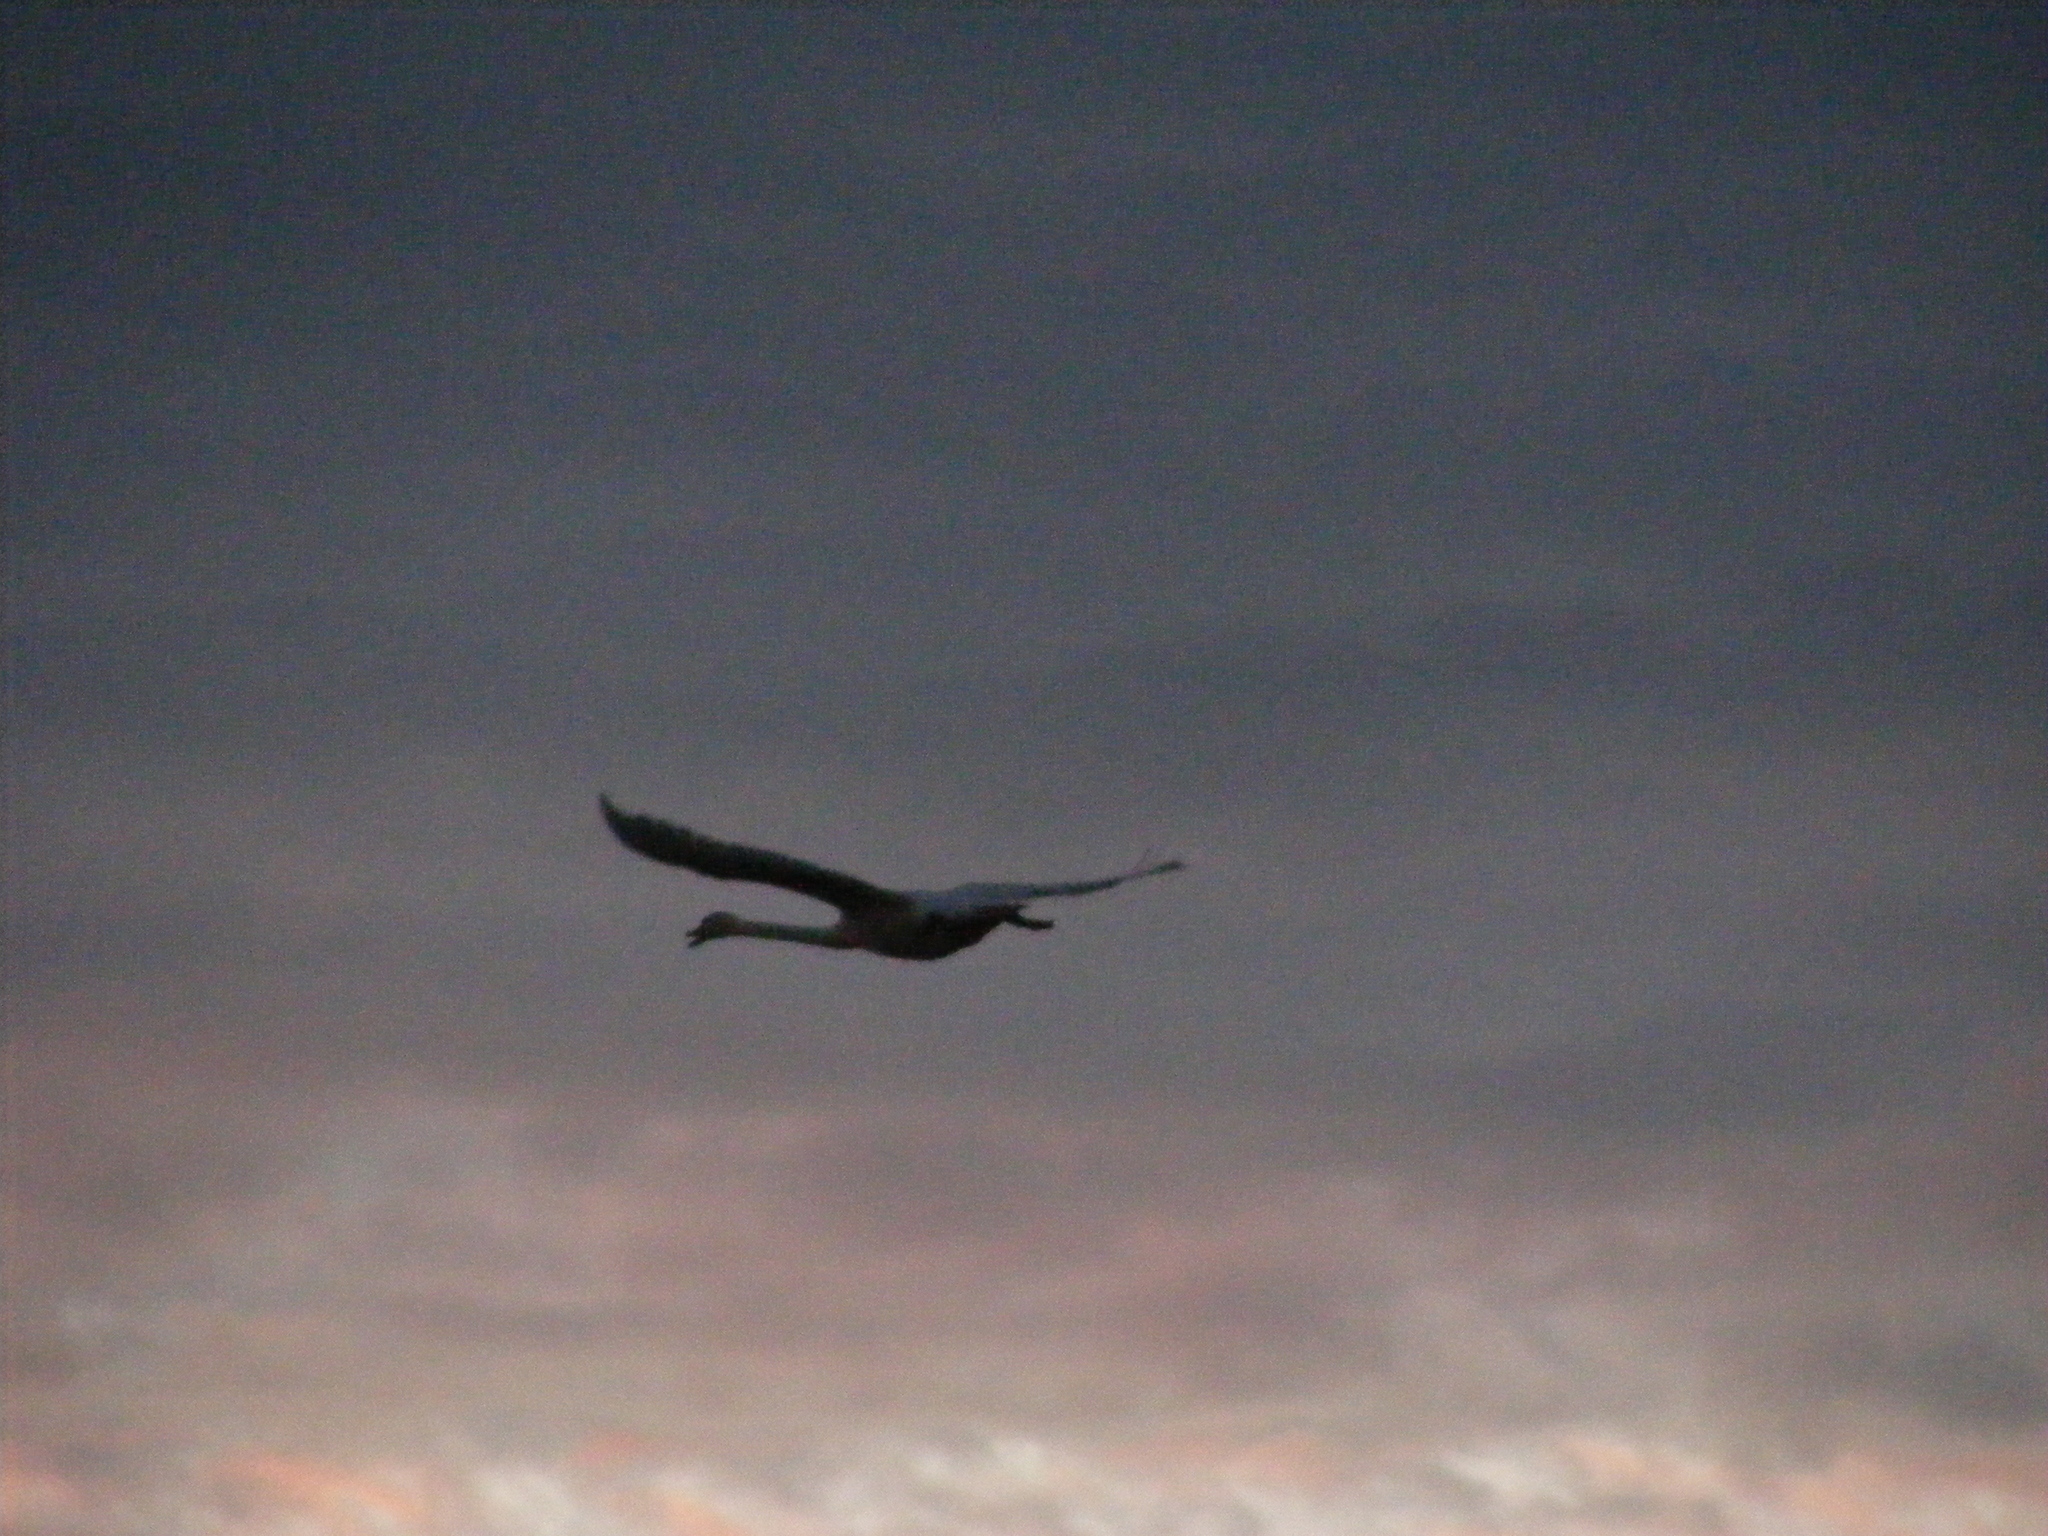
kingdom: Animalia
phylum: Chordata
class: Aves
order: Anseriformes
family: Anatidae
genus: Cygnus
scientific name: Cygnus buccinator
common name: Trumpeter swan
